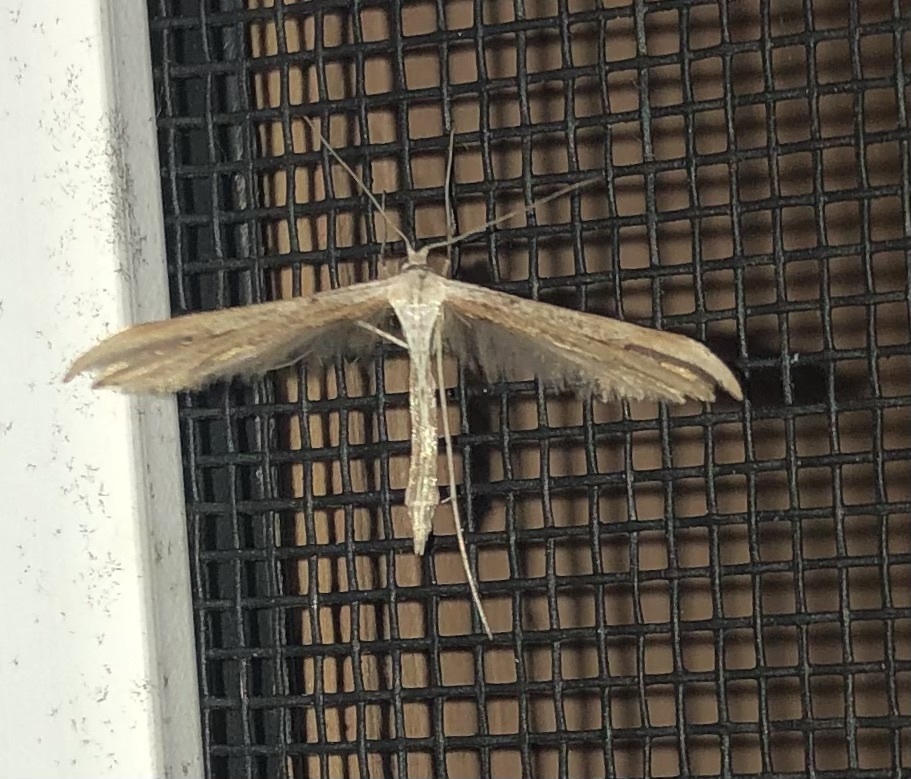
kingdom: Animalia
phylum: Arthropoda
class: Insecta
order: Lepidoptera
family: Pterophoridae
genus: Emmelina
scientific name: Emmelina monodactyla
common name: Common plume
